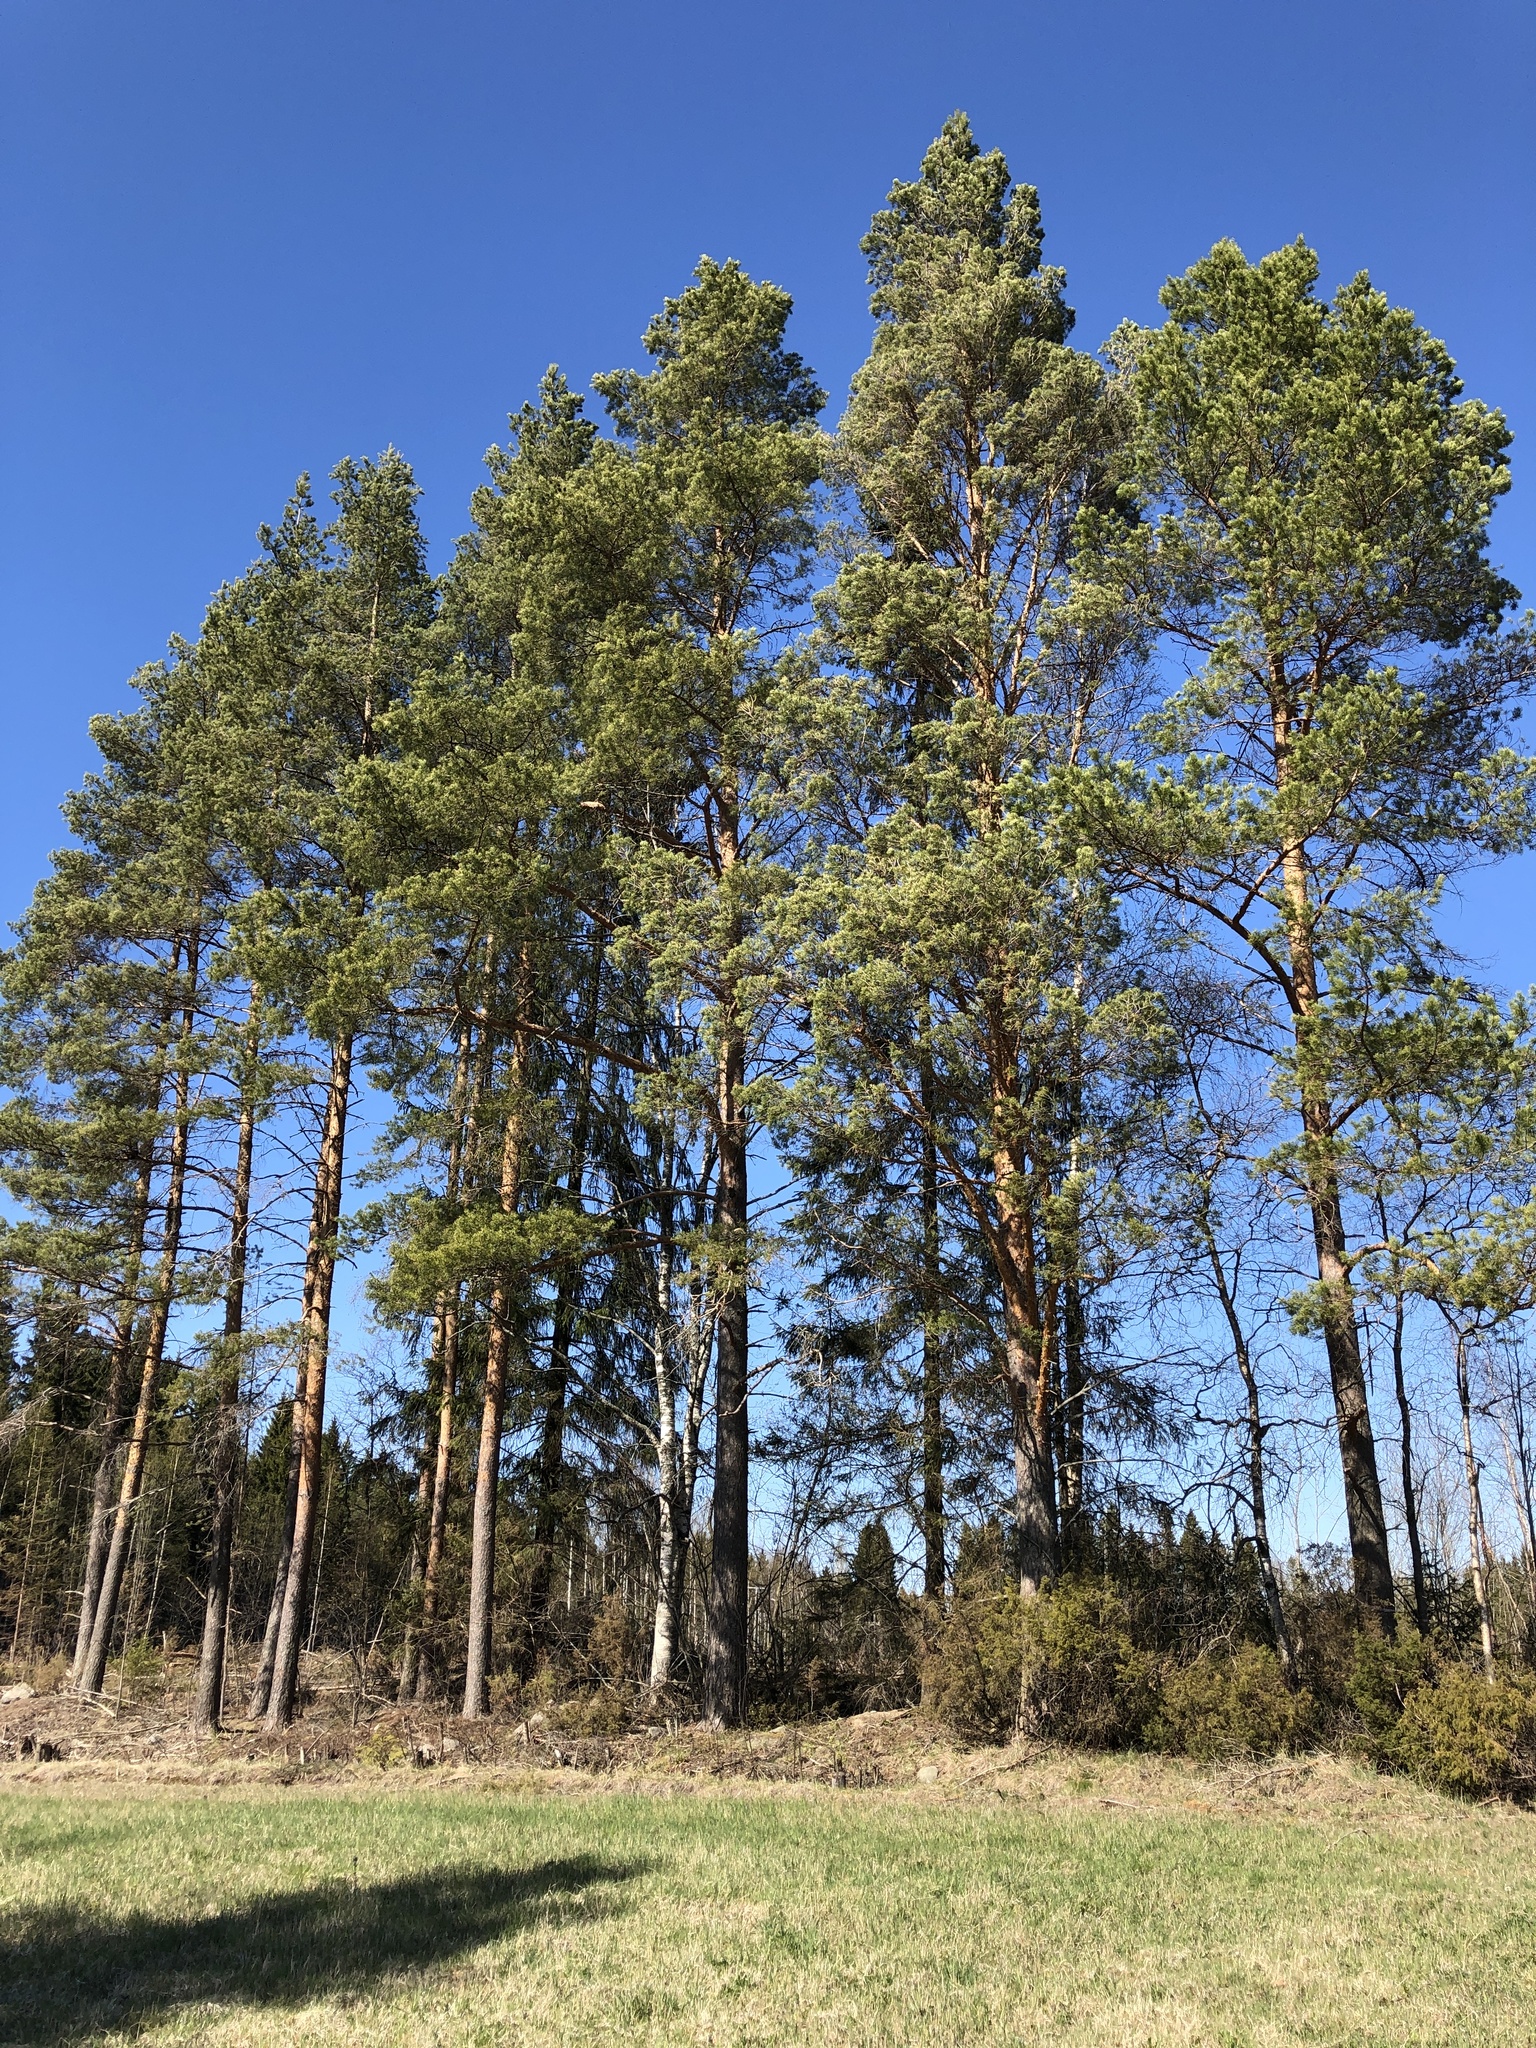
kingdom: Plantae
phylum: Tracheophyta
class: Pinopsida
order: Pinales
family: Pinaceae
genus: Pinus
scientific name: Pinus sylvestris
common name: Scots pine
